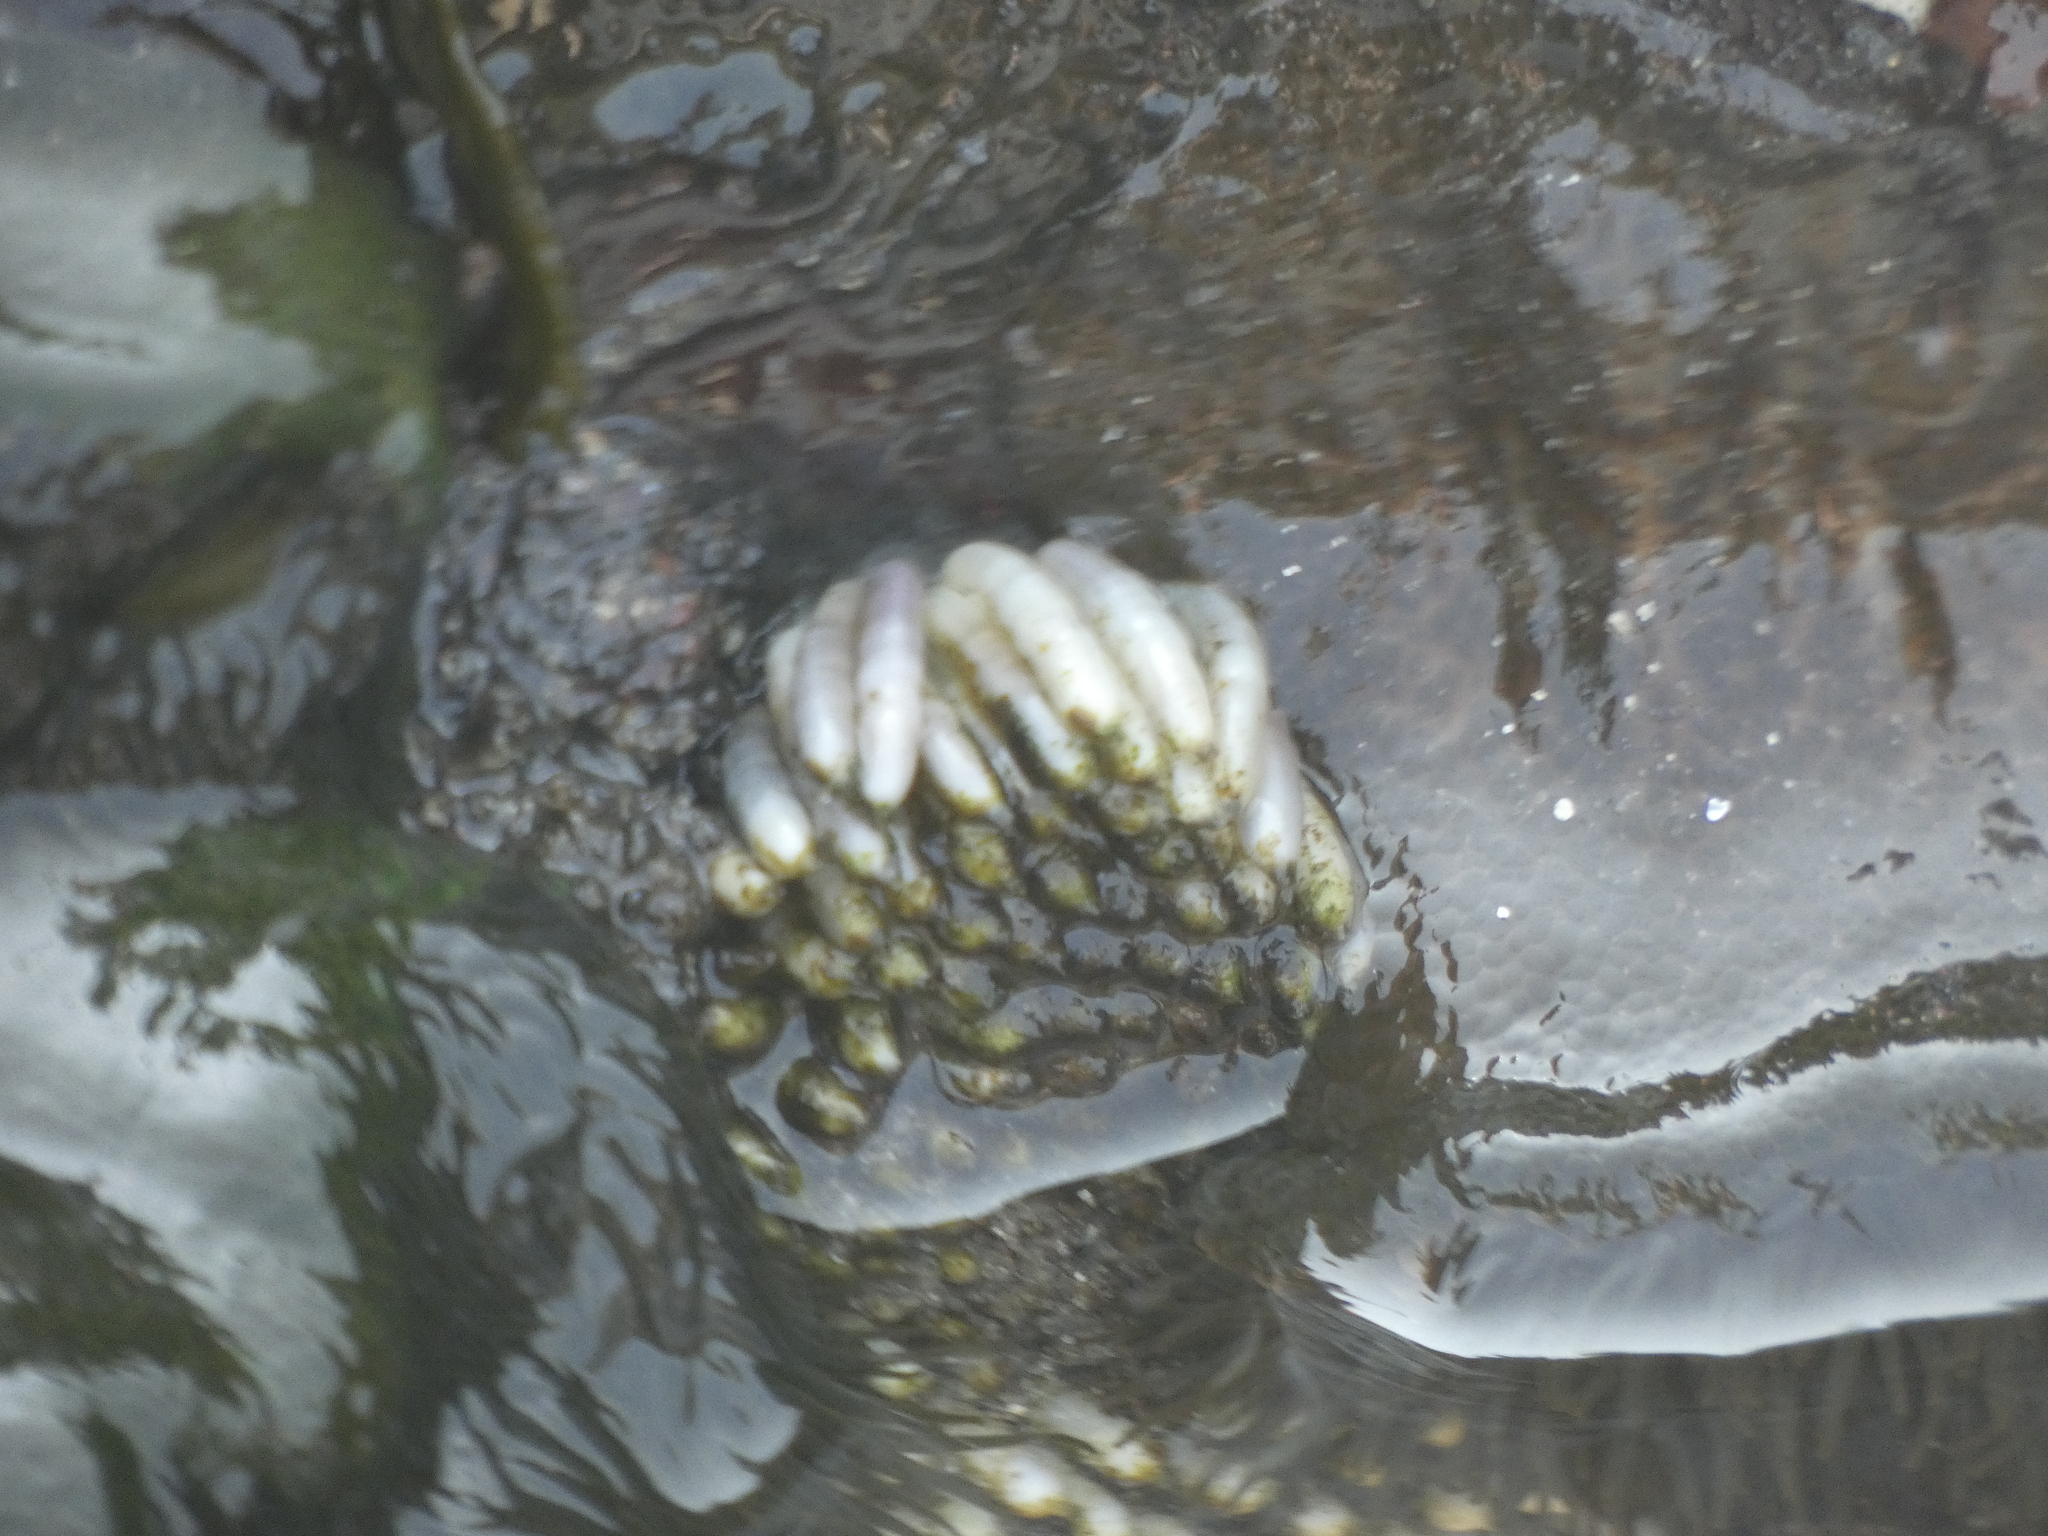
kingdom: Animalia
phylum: Mollusca
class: Gastropoda
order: Neogastropoda
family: Muricidae
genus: Concholepas
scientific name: Concholepas concholepas
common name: Chilean abalone
